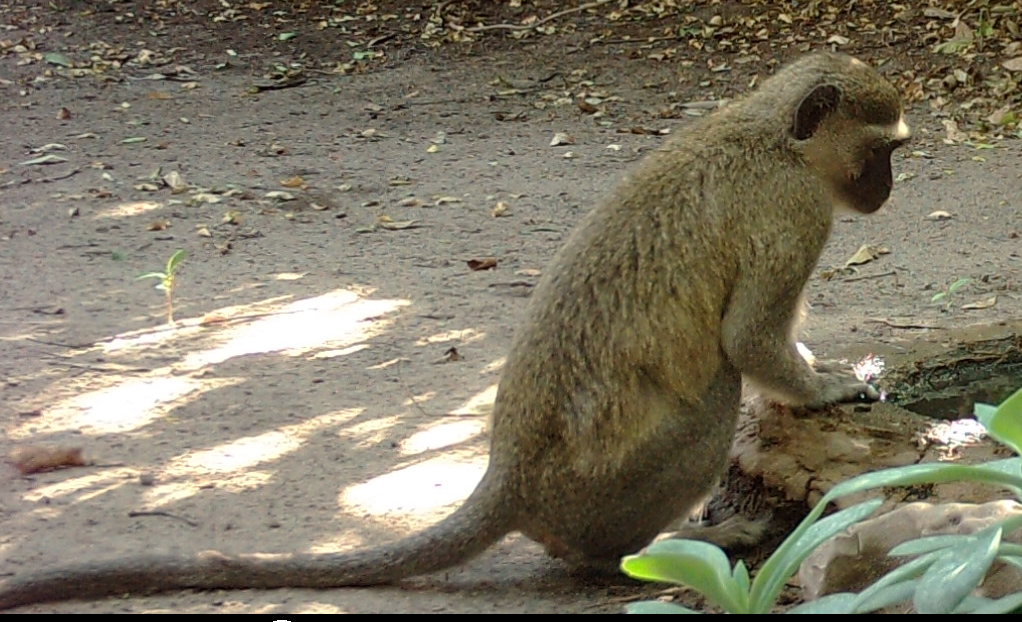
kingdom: Animalia
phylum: Chordata
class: Mammalia
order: Primates
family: Cercopithecidae
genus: Chlorocebus
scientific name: Chlorocebus pygerythrus
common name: Vervet monkey
